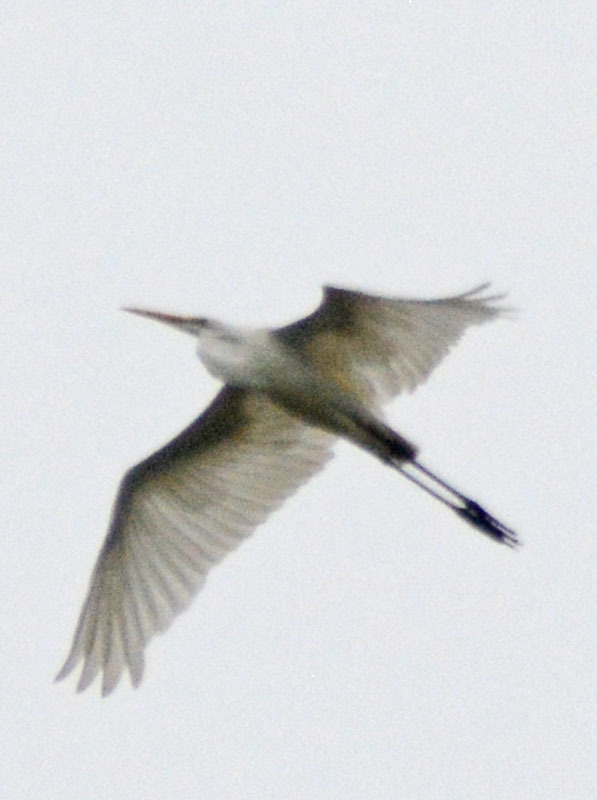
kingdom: Animalia
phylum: Chordata
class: Aves
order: Pelecaniformes
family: Ardeidae
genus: Ardea
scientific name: Ardea alba
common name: Great egret
